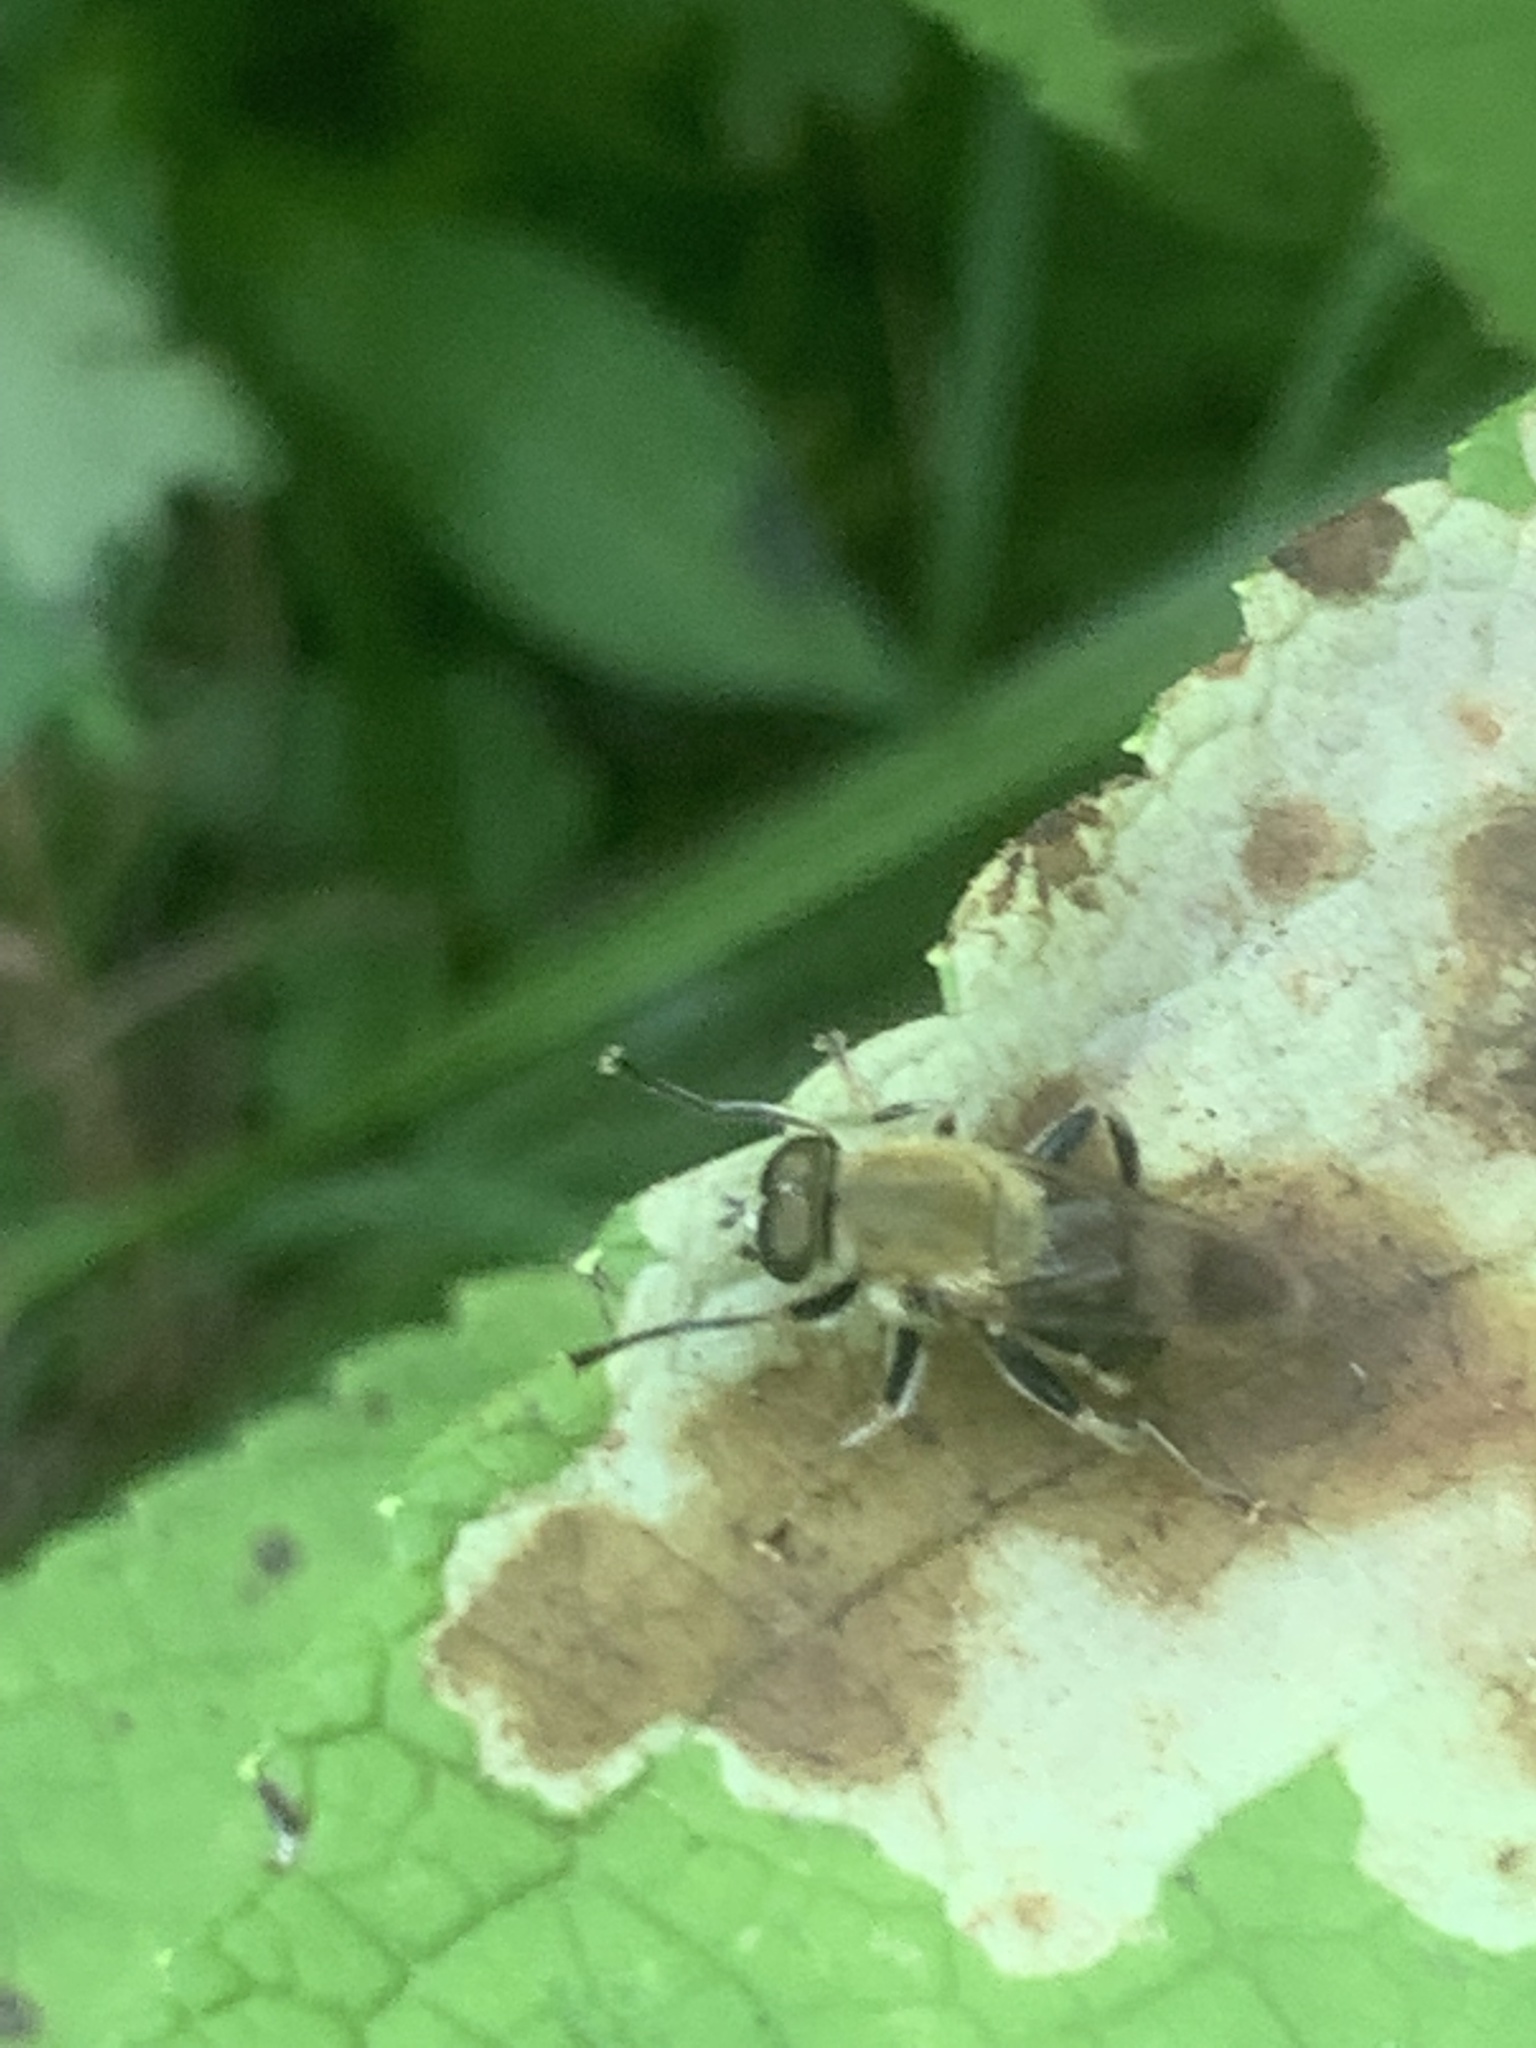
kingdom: Animalia
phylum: Arthropoda
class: Insecta
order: Diptera
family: Syrphidae
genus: Pterallastes
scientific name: Pterallastes thoracicus
